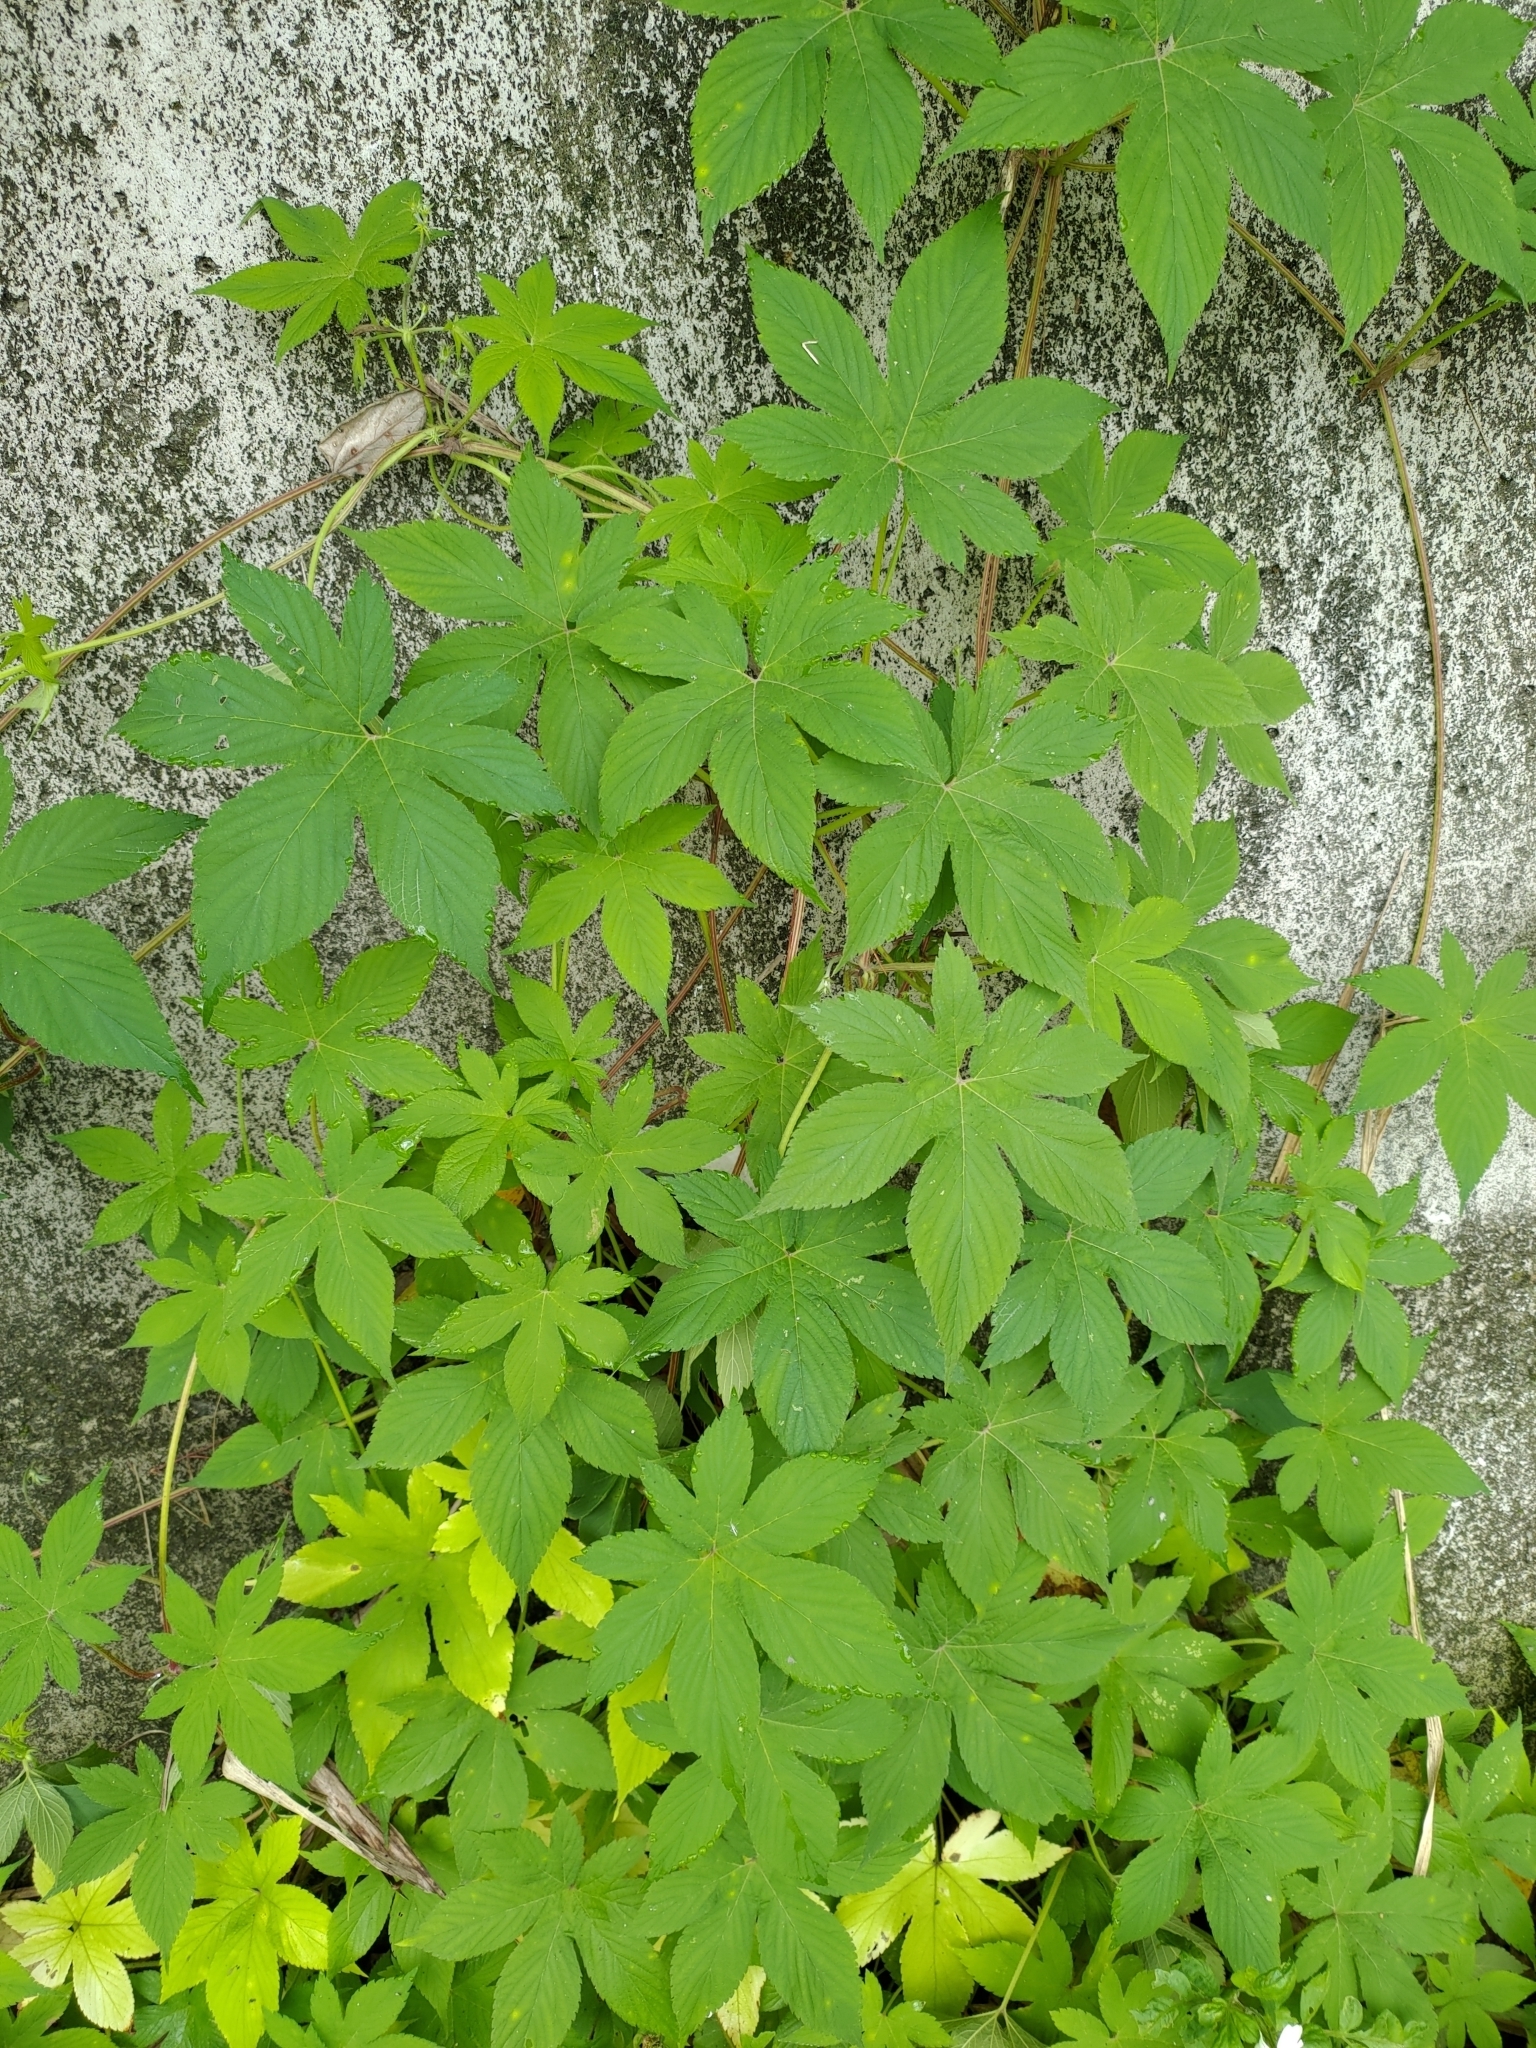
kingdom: Plantae
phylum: Tracheophyta
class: Magnoliopsida
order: Rosales
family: Cannabaceae
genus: Humulus
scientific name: Humulus scandens
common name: Japanese hop
